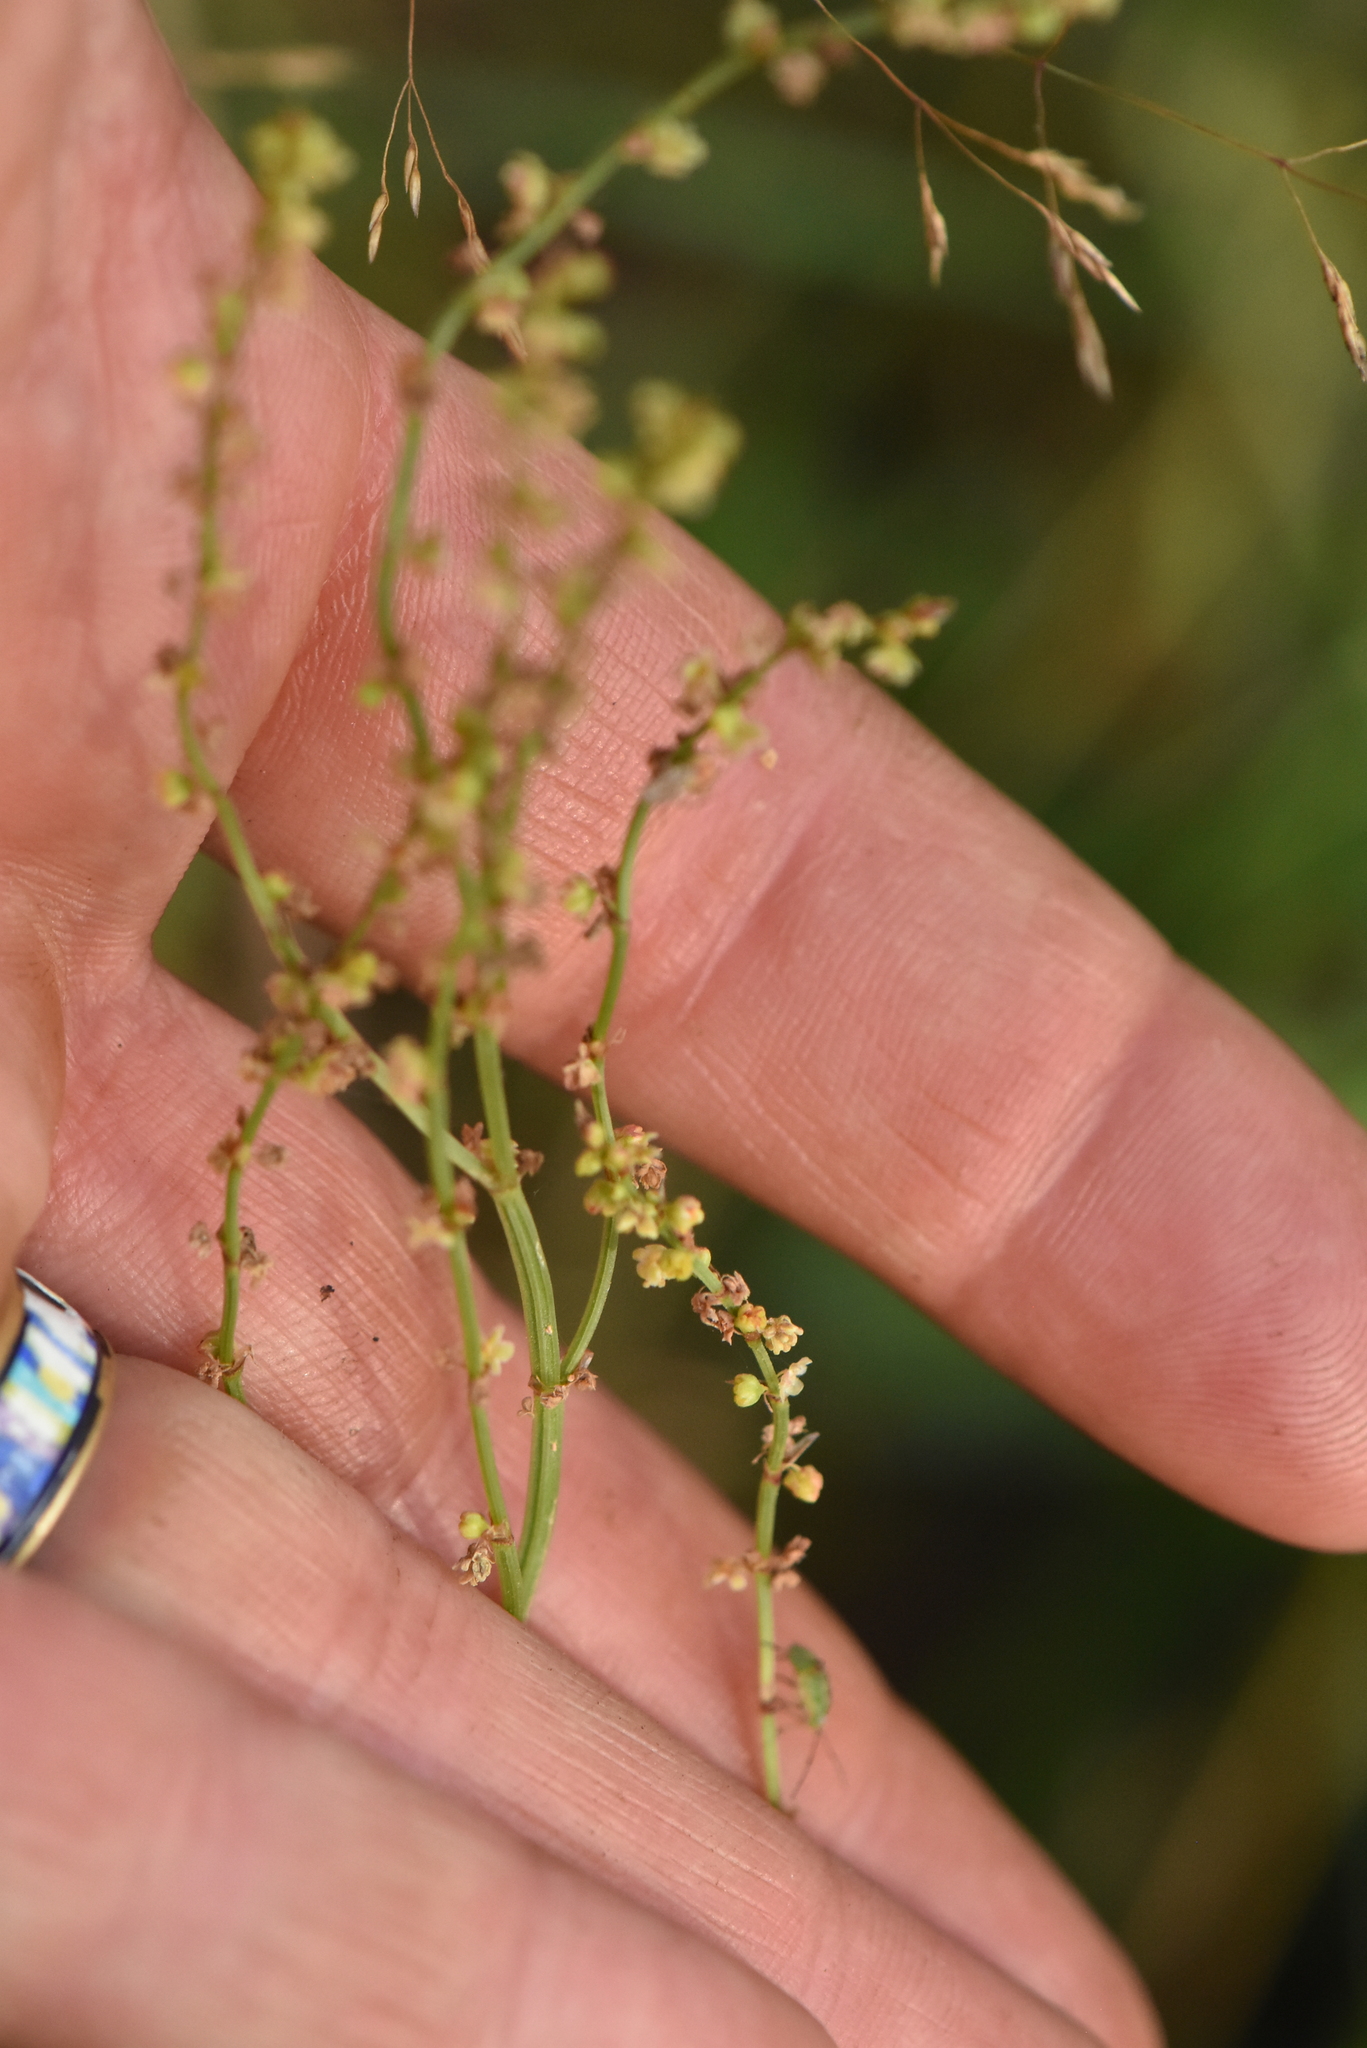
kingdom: Plantae
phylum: Tracheophyta
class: Magnoliopsida
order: Caryophyllales
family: Polygonaceae
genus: Rumex
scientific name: Rumex acetosella
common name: Common sheep sorrel
